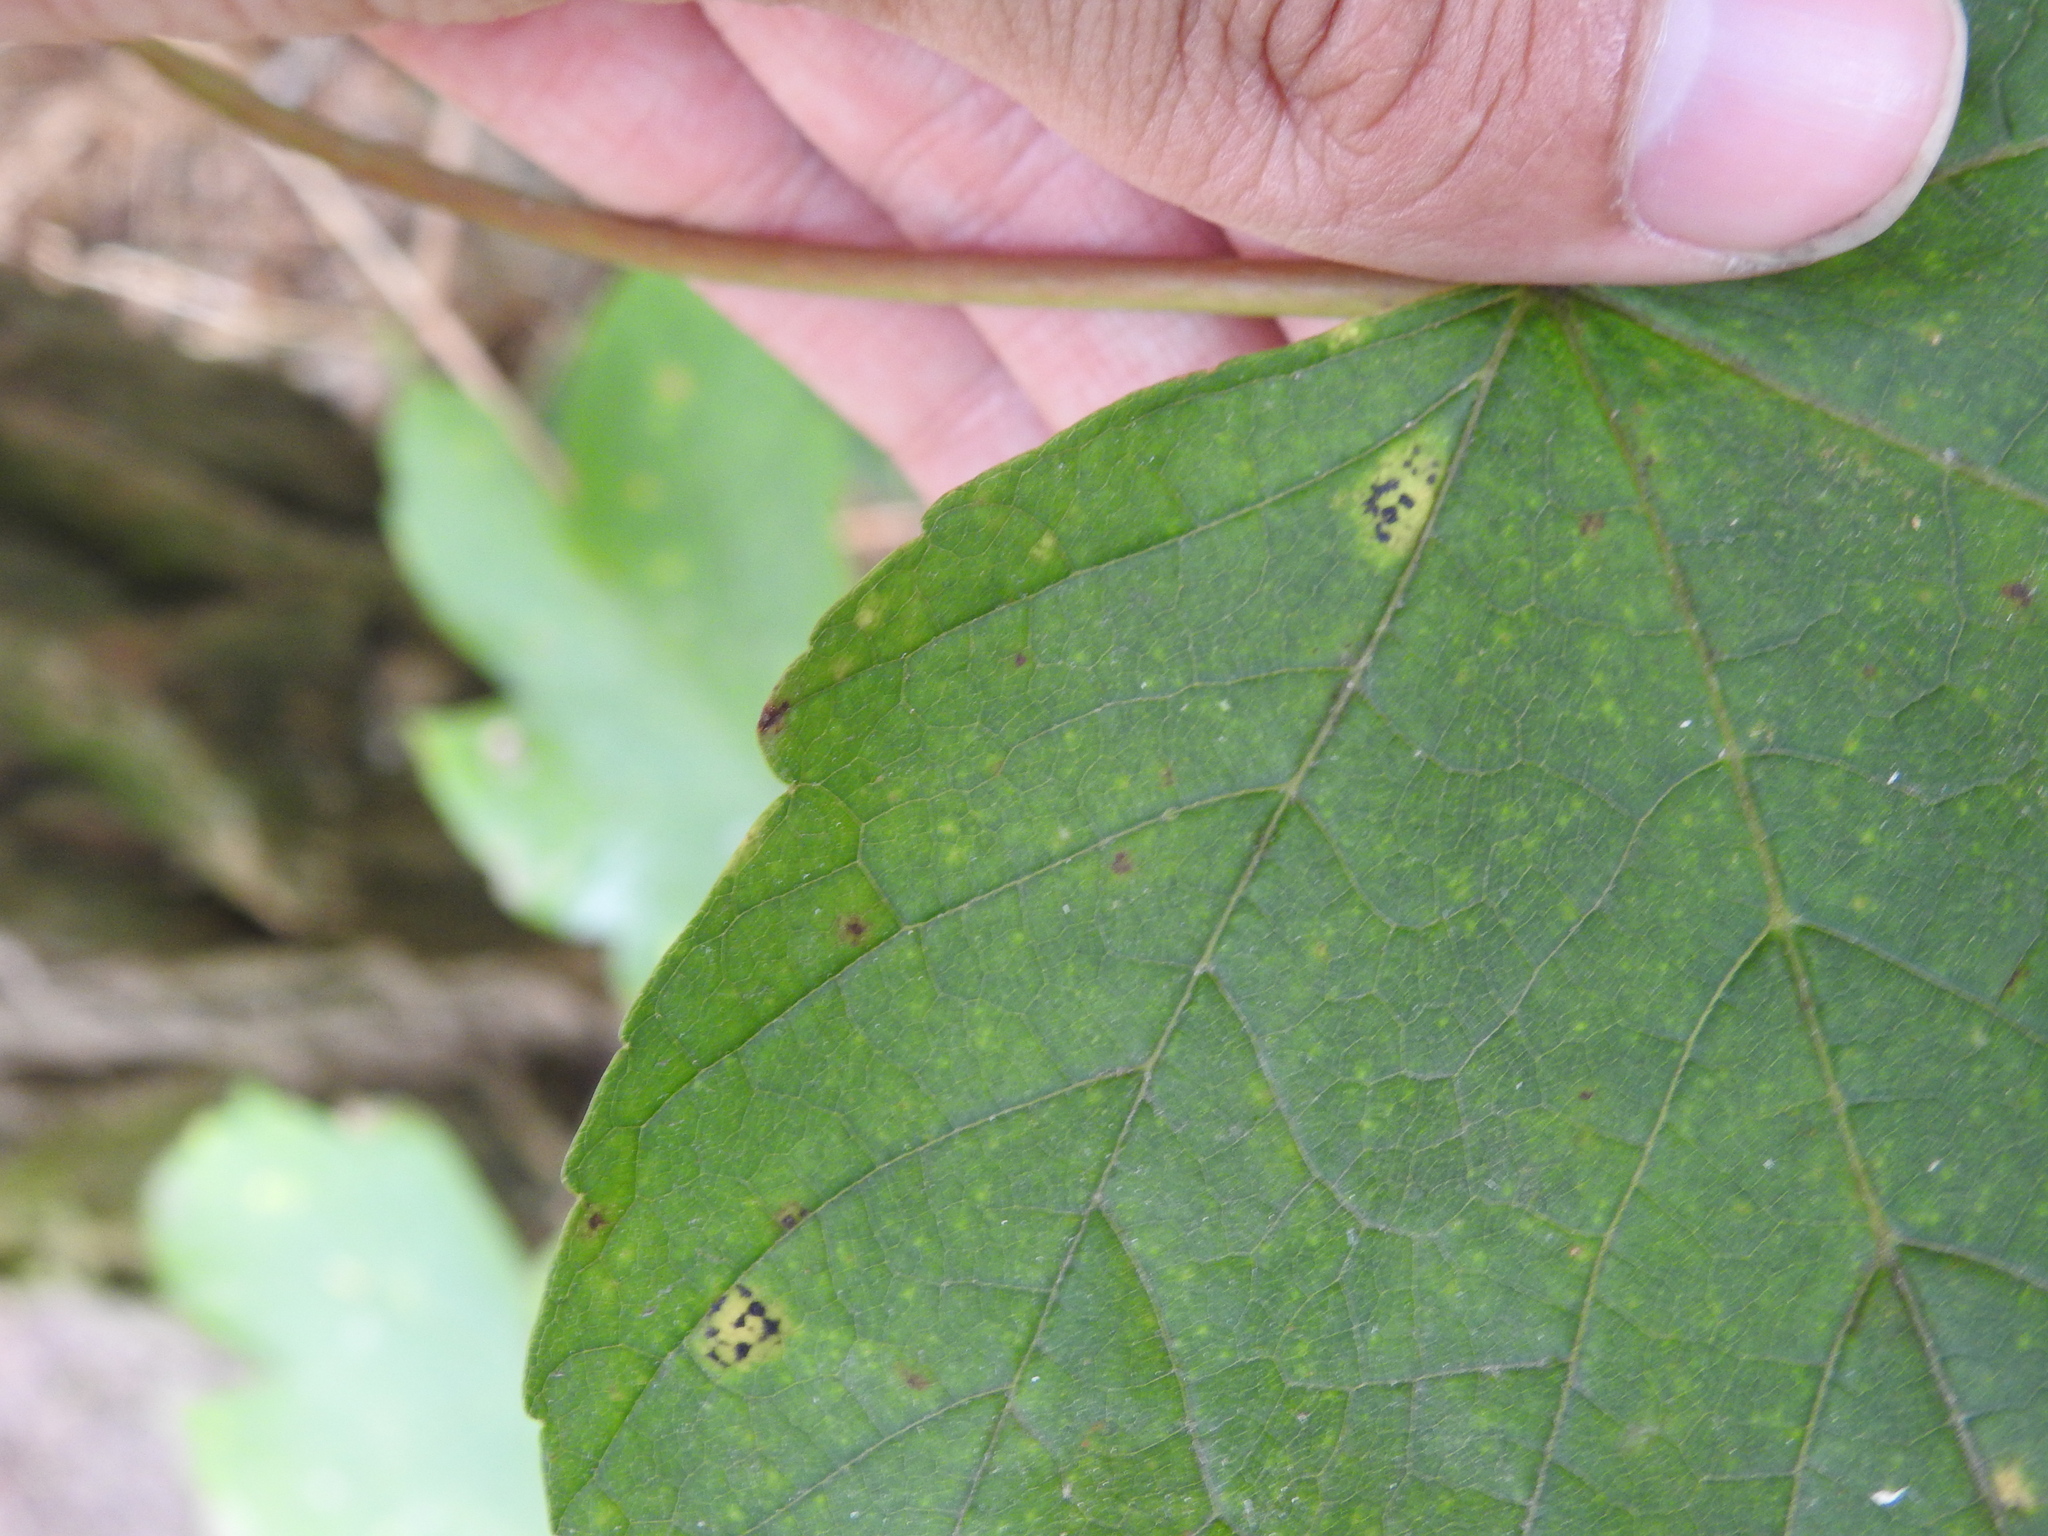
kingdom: Fungi
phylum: Ascomycota
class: Leotiomycetes
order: Rhytismatales
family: Rhytismataceae
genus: Rhytisma
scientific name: Rhytisma acerinum
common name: European tar spot
